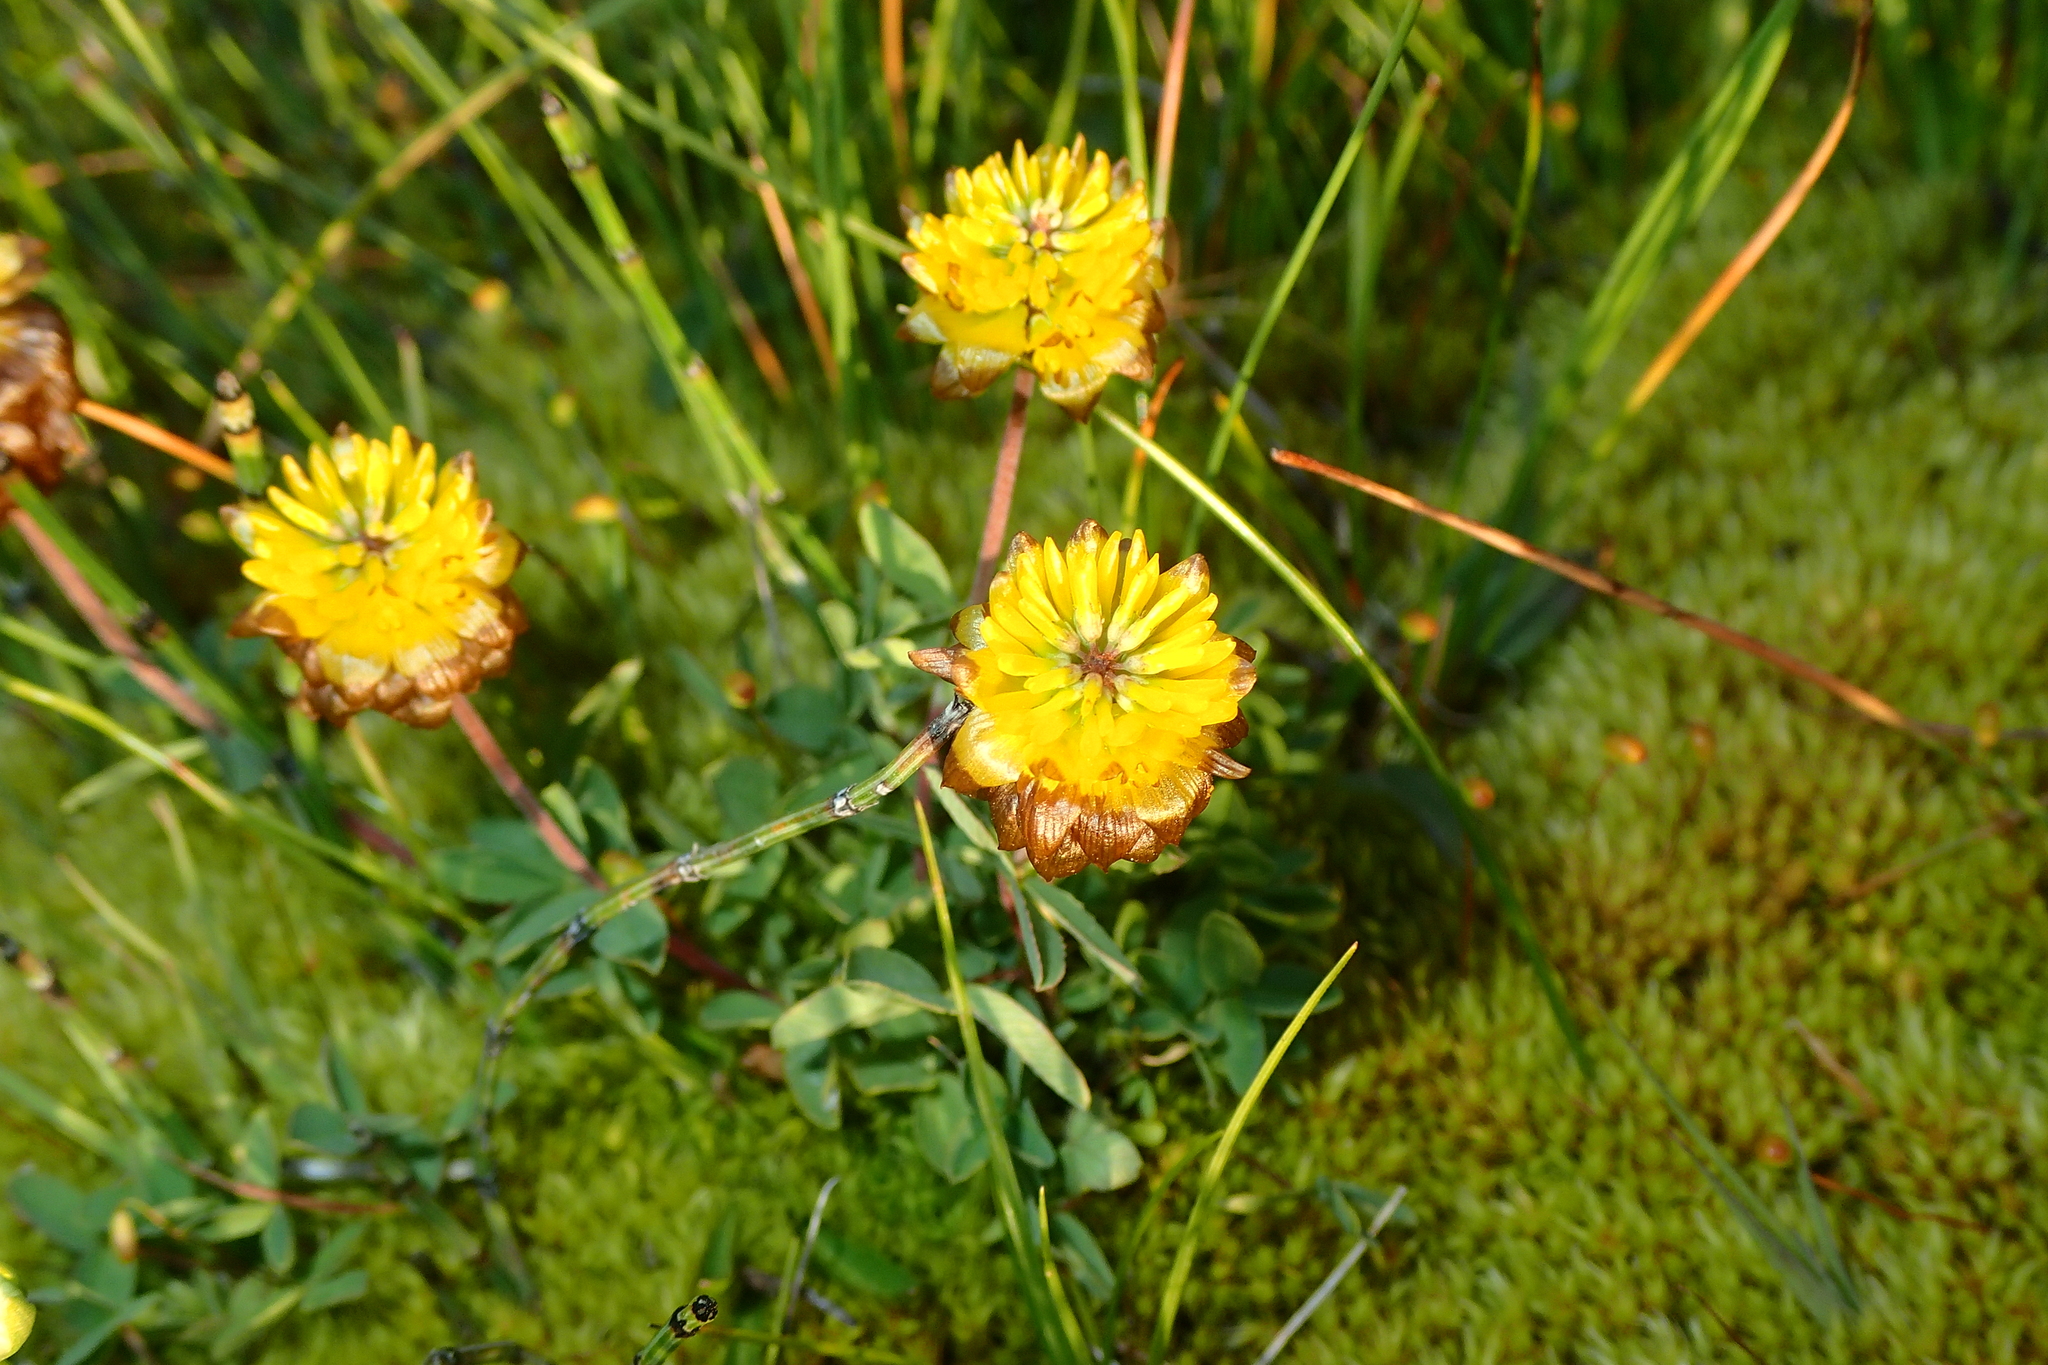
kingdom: Plantae
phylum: Tracheophyta
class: Magnoliopsida
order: Fabales
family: Fabaceae
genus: Trifolium
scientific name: Trifolium badium
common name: Brown clover
